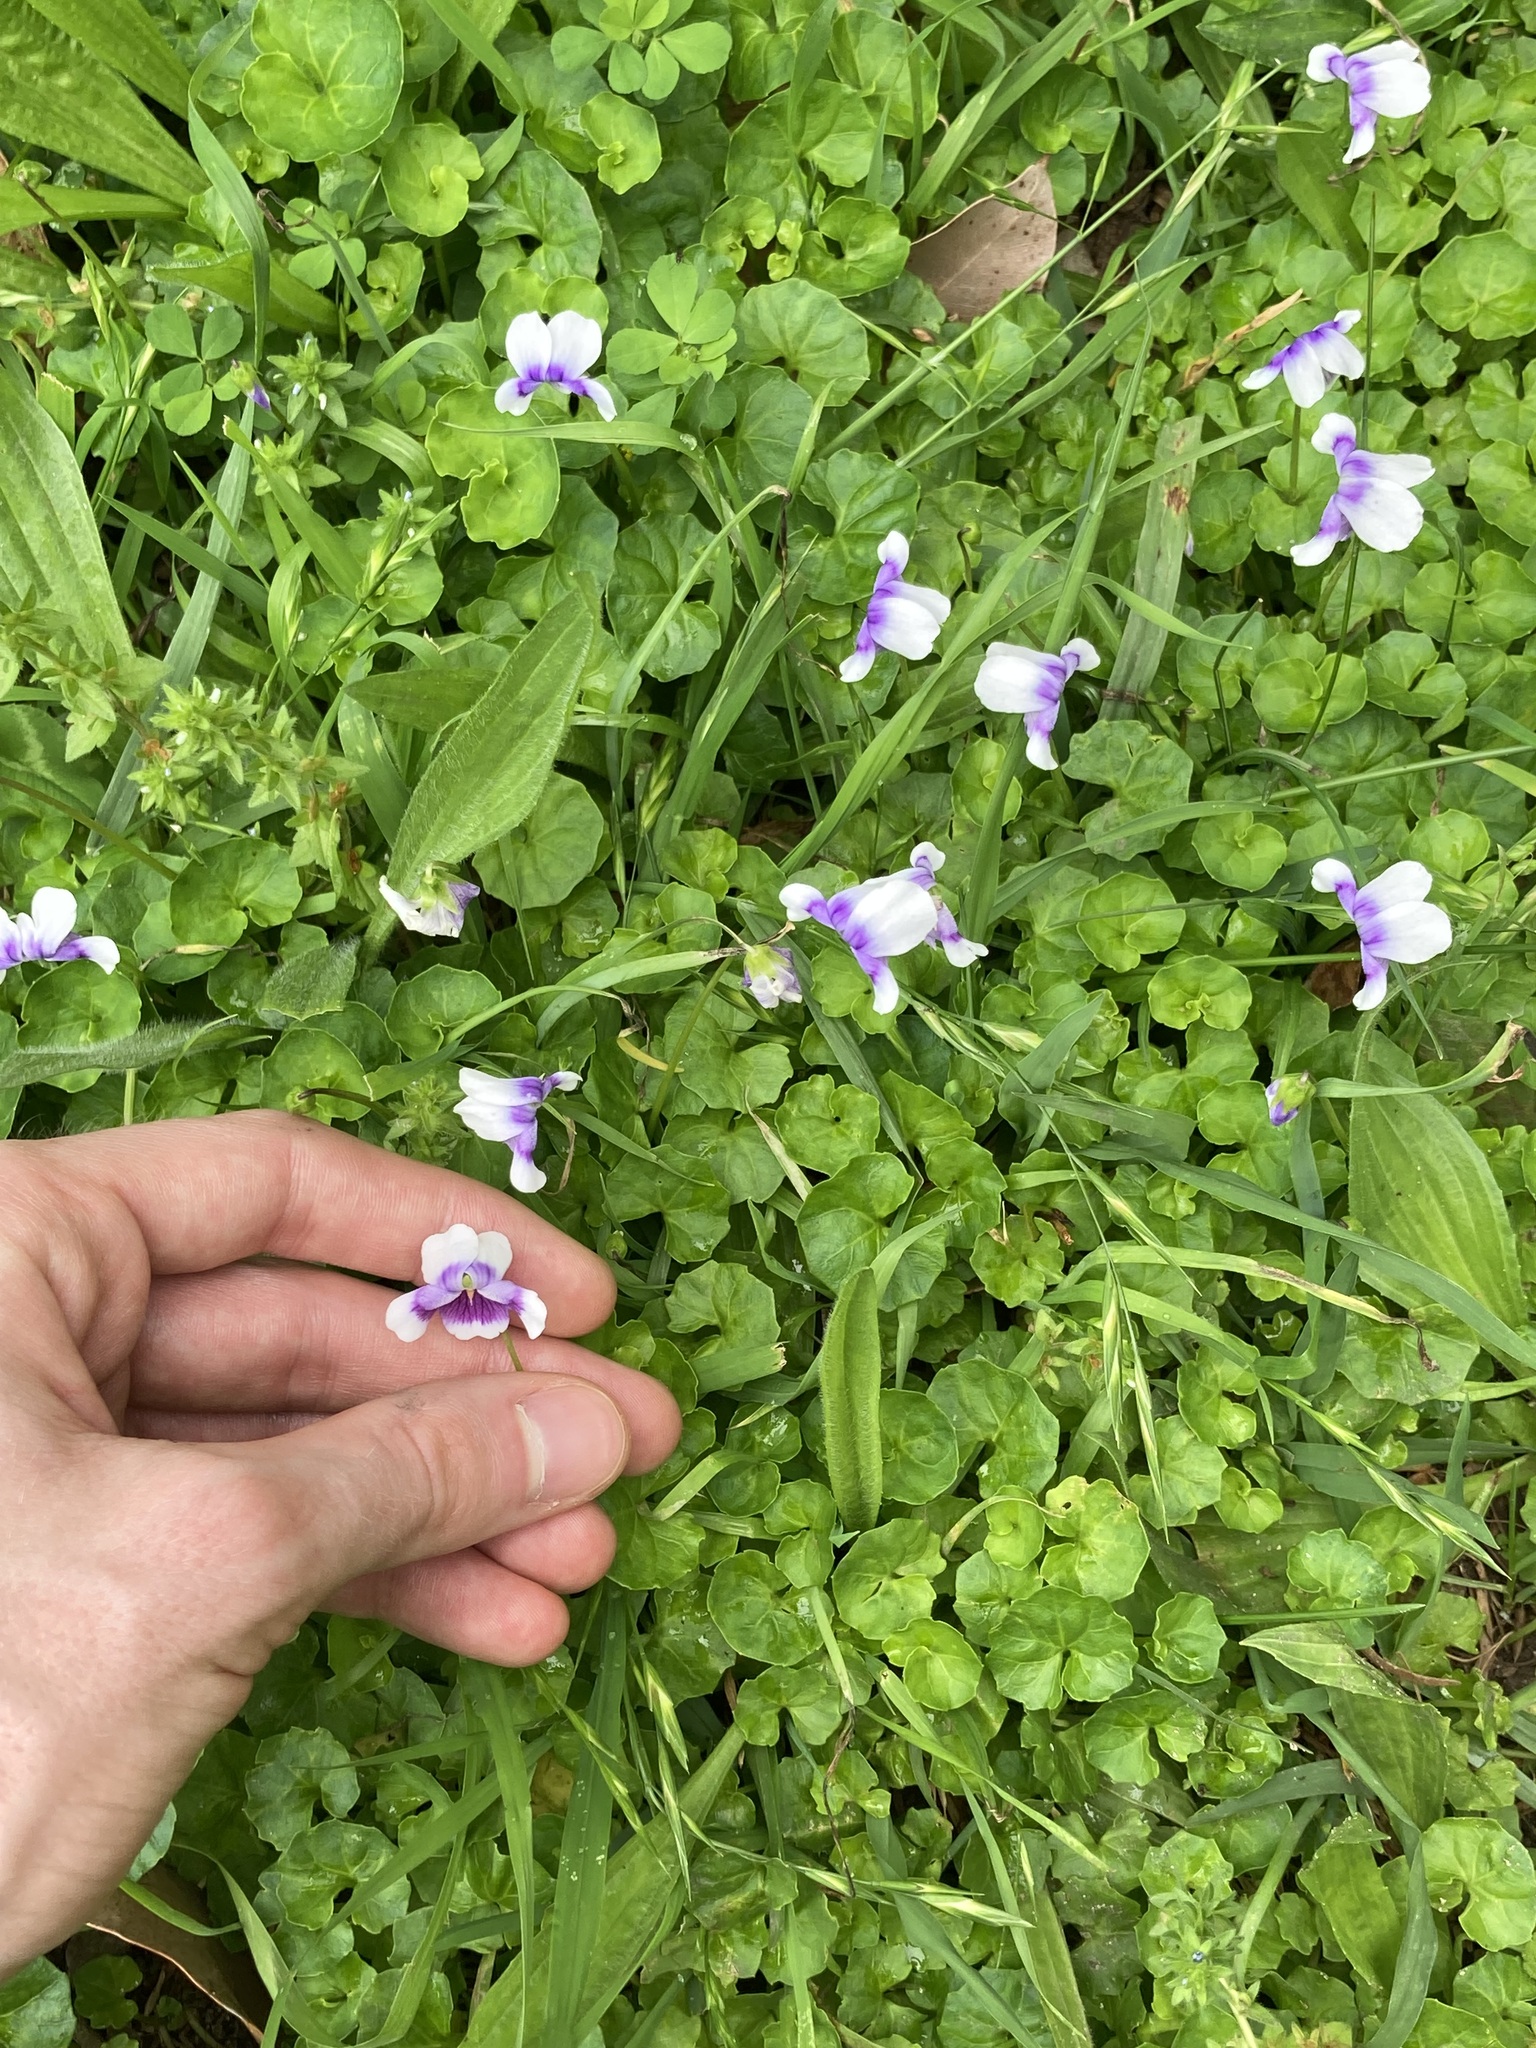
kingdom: Plantae
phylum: Tracheophyta
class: Magnoliopsida
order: Malpighiales
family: Violaceae
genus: Viola
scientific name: Viola banksii
